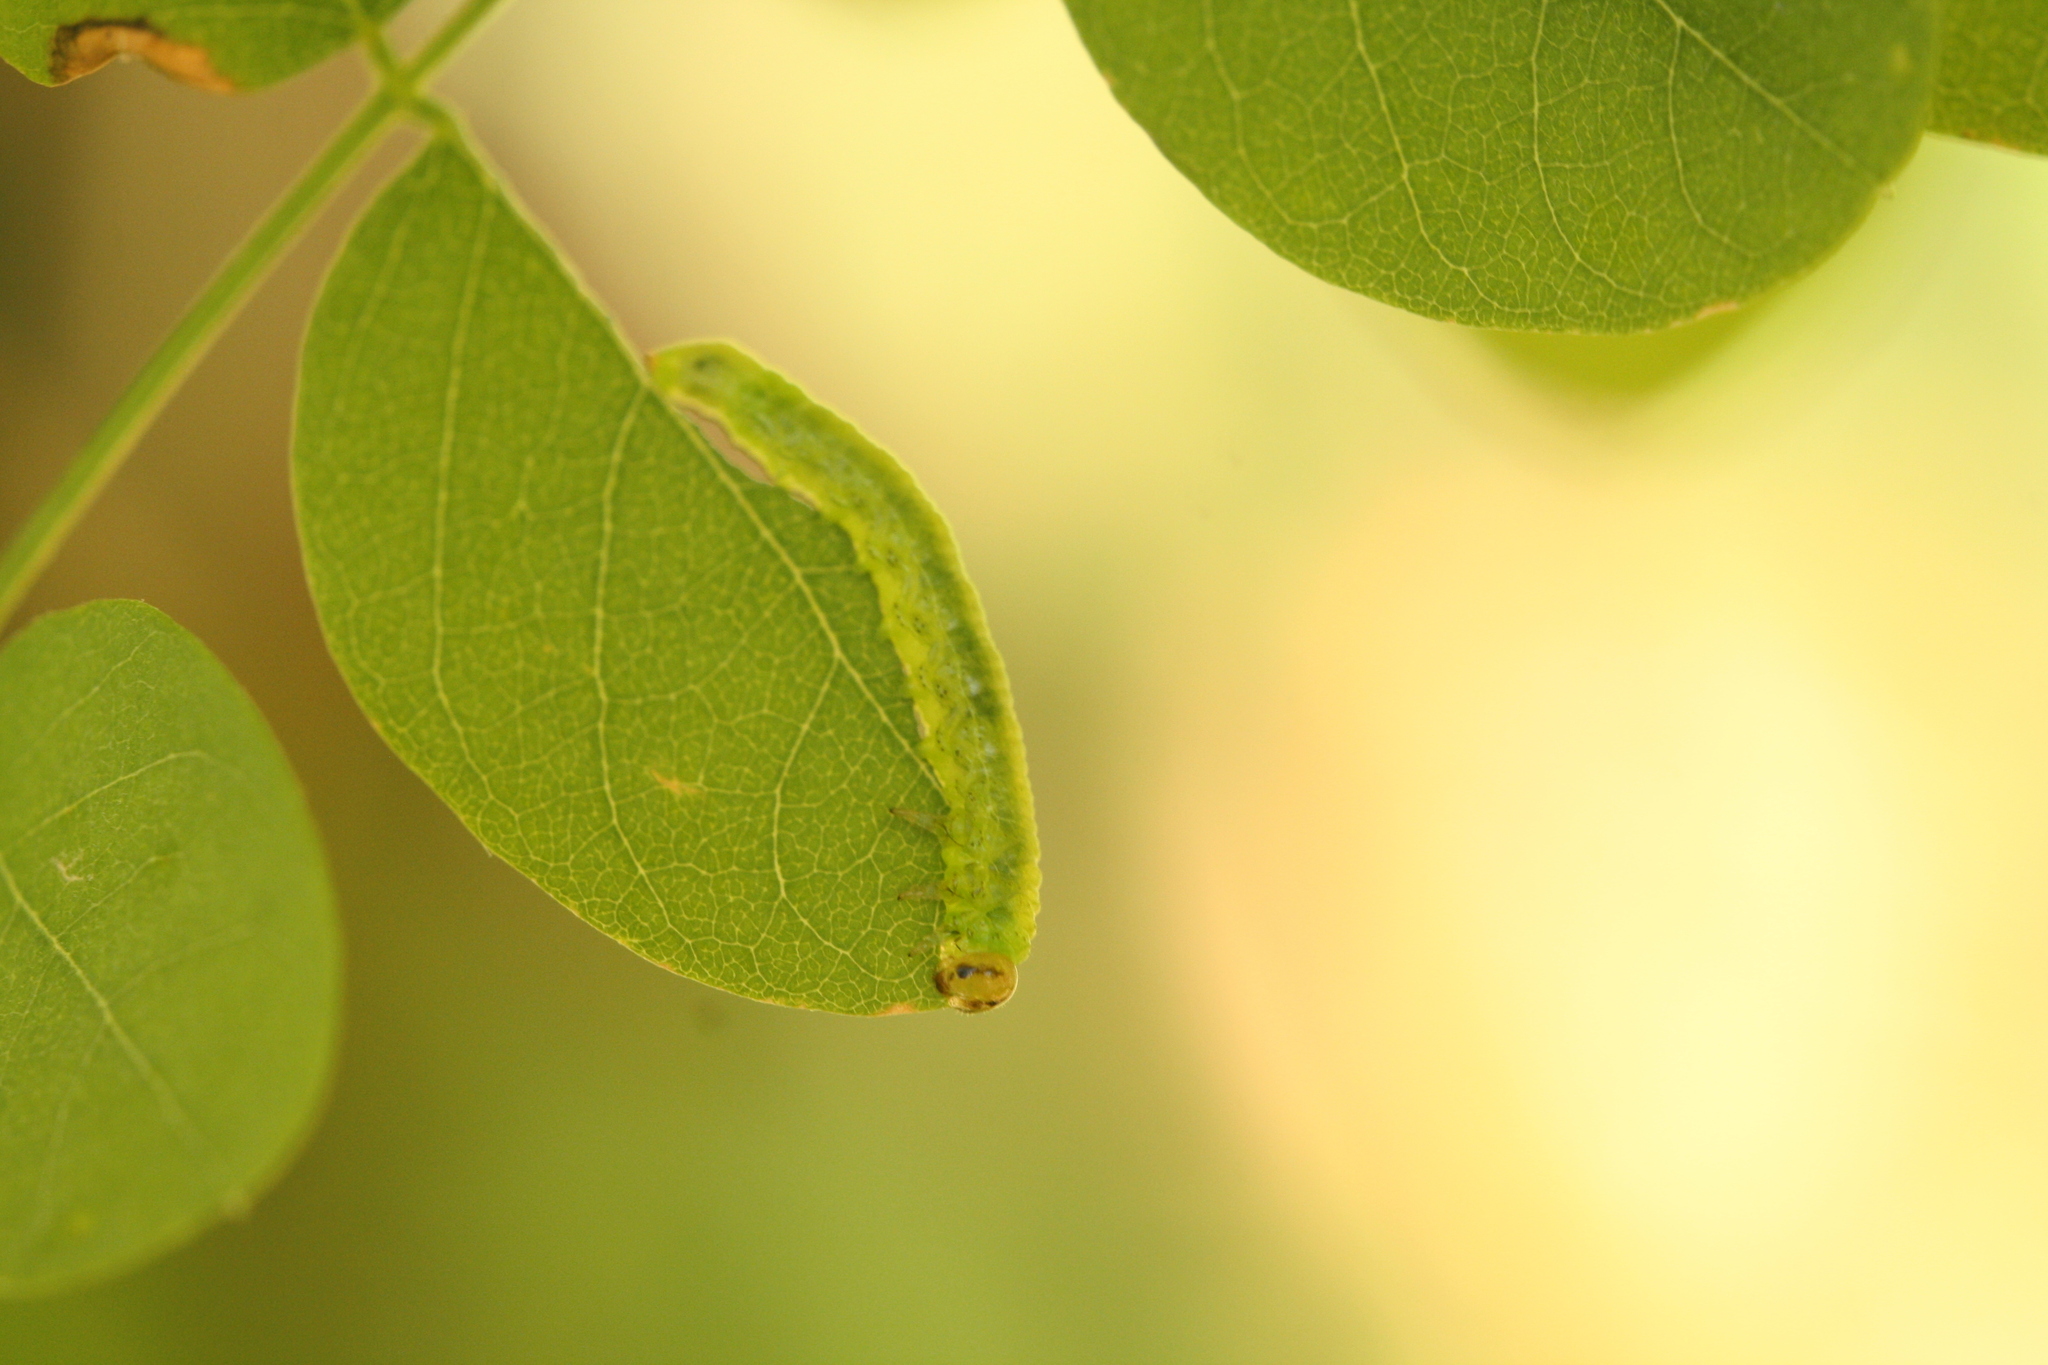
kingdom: Animalia
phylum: Arthropoda
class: Insecta
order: Hymenoptera
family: Tenthredinidae
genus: Euura
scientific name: Euura tibialis
